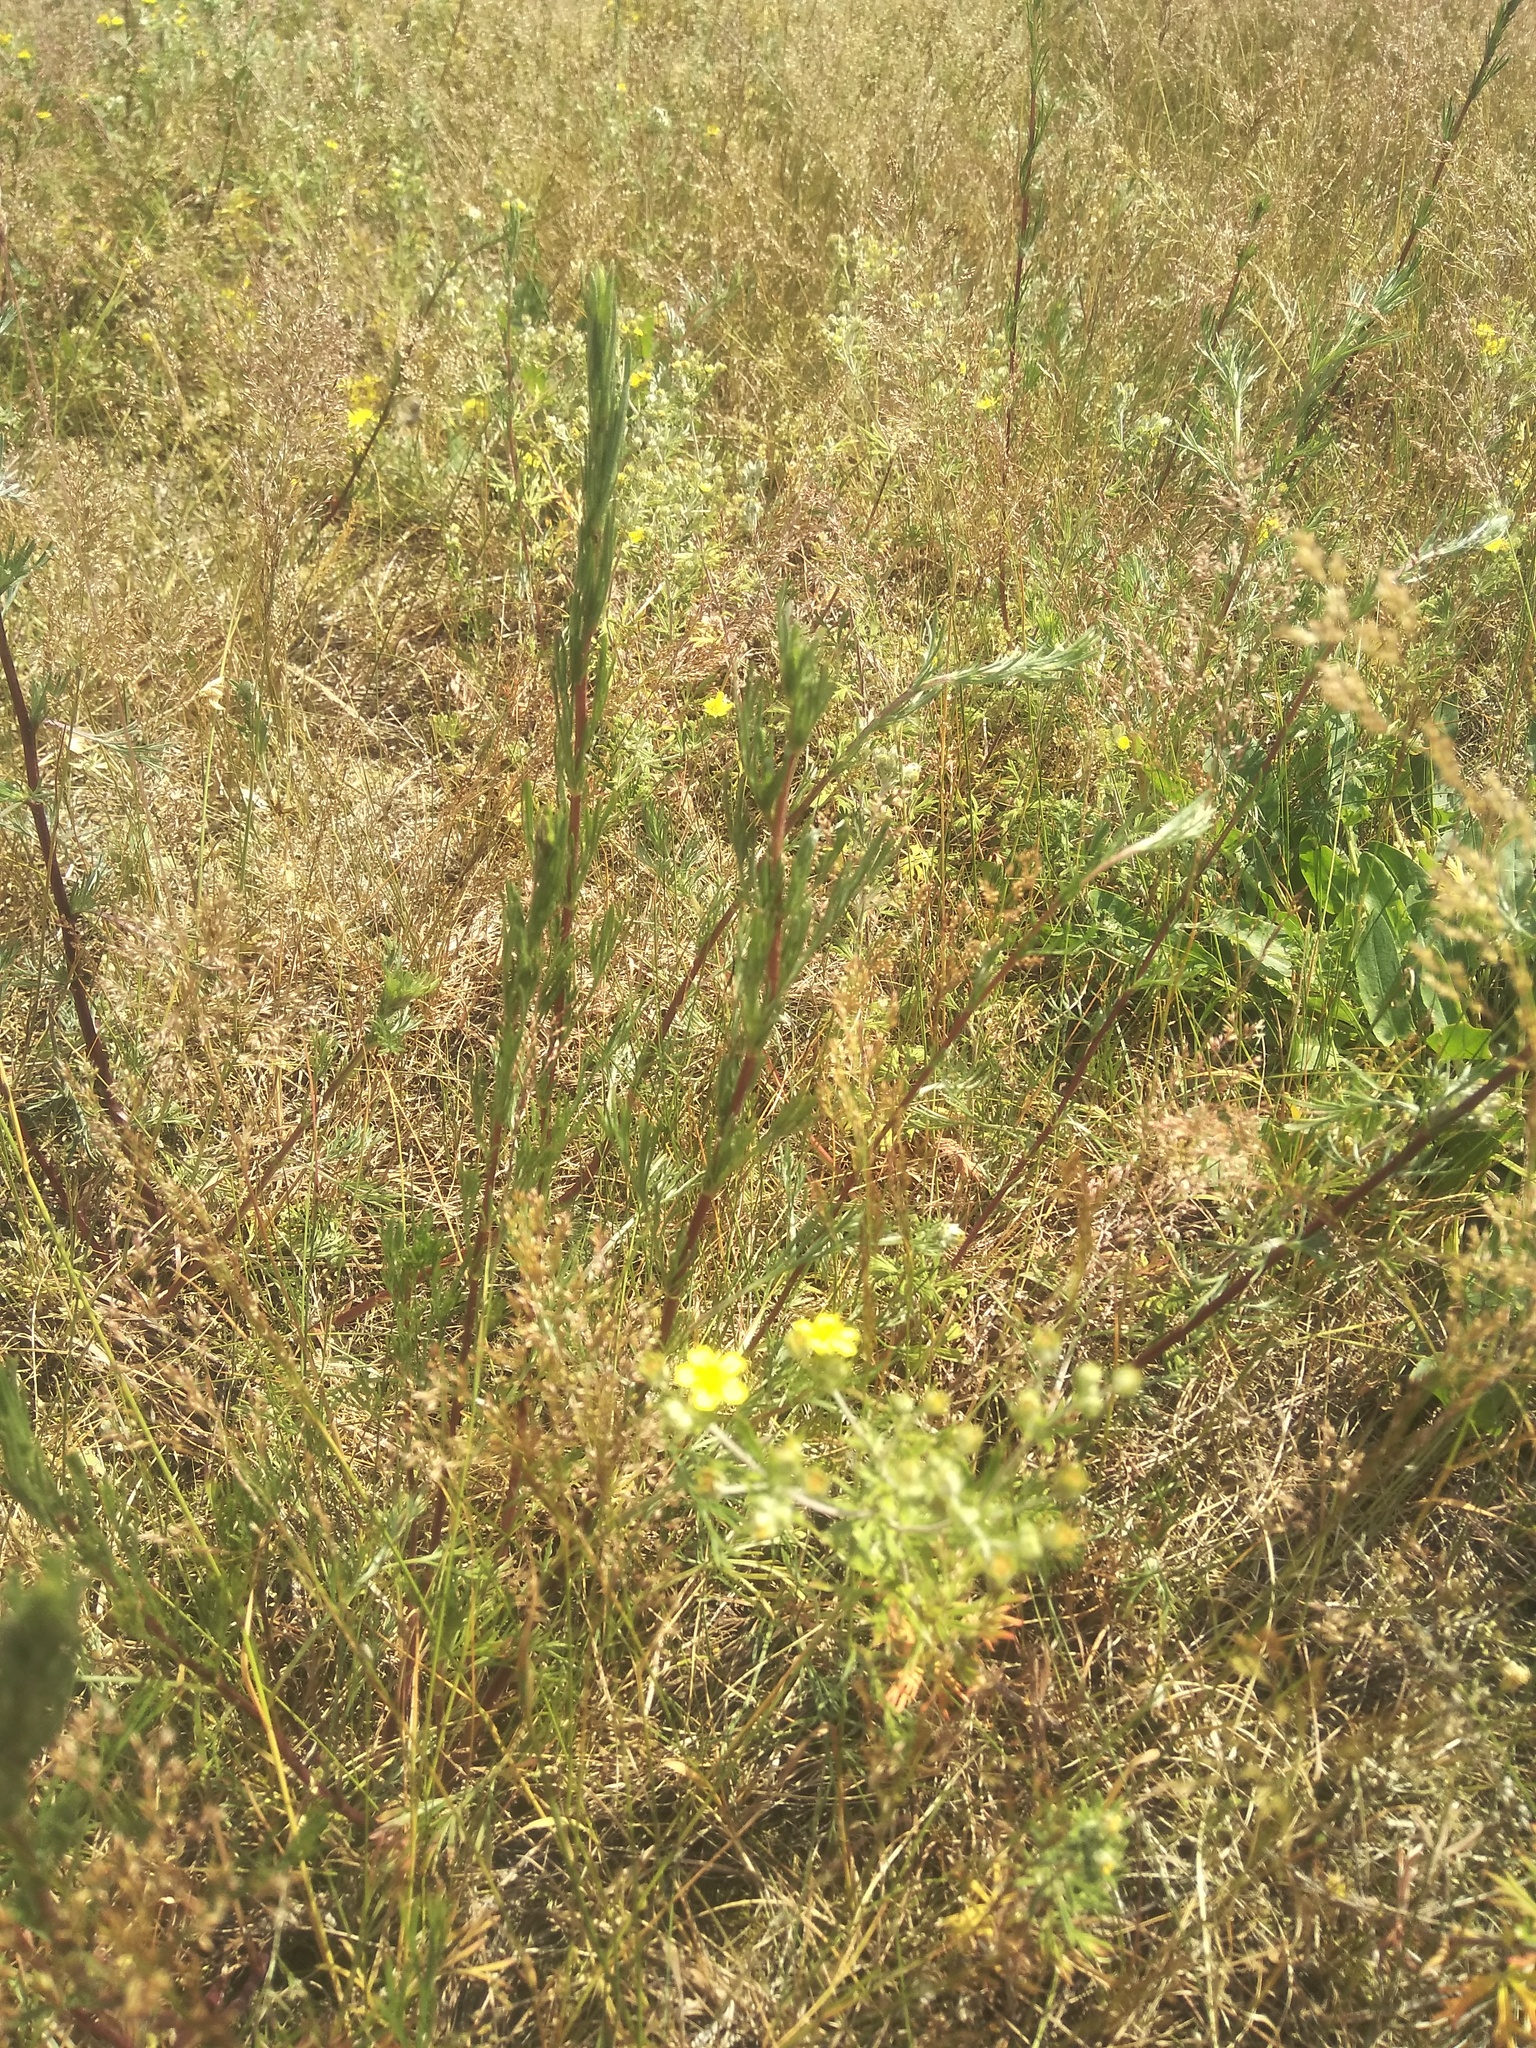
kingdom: Plantae
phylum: Tracheophyta
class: Magnoliopsida
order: Rosales
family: Rosaceae
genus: Potentilla
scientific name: Potentilla argentea
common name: Hoary cinquefoil
